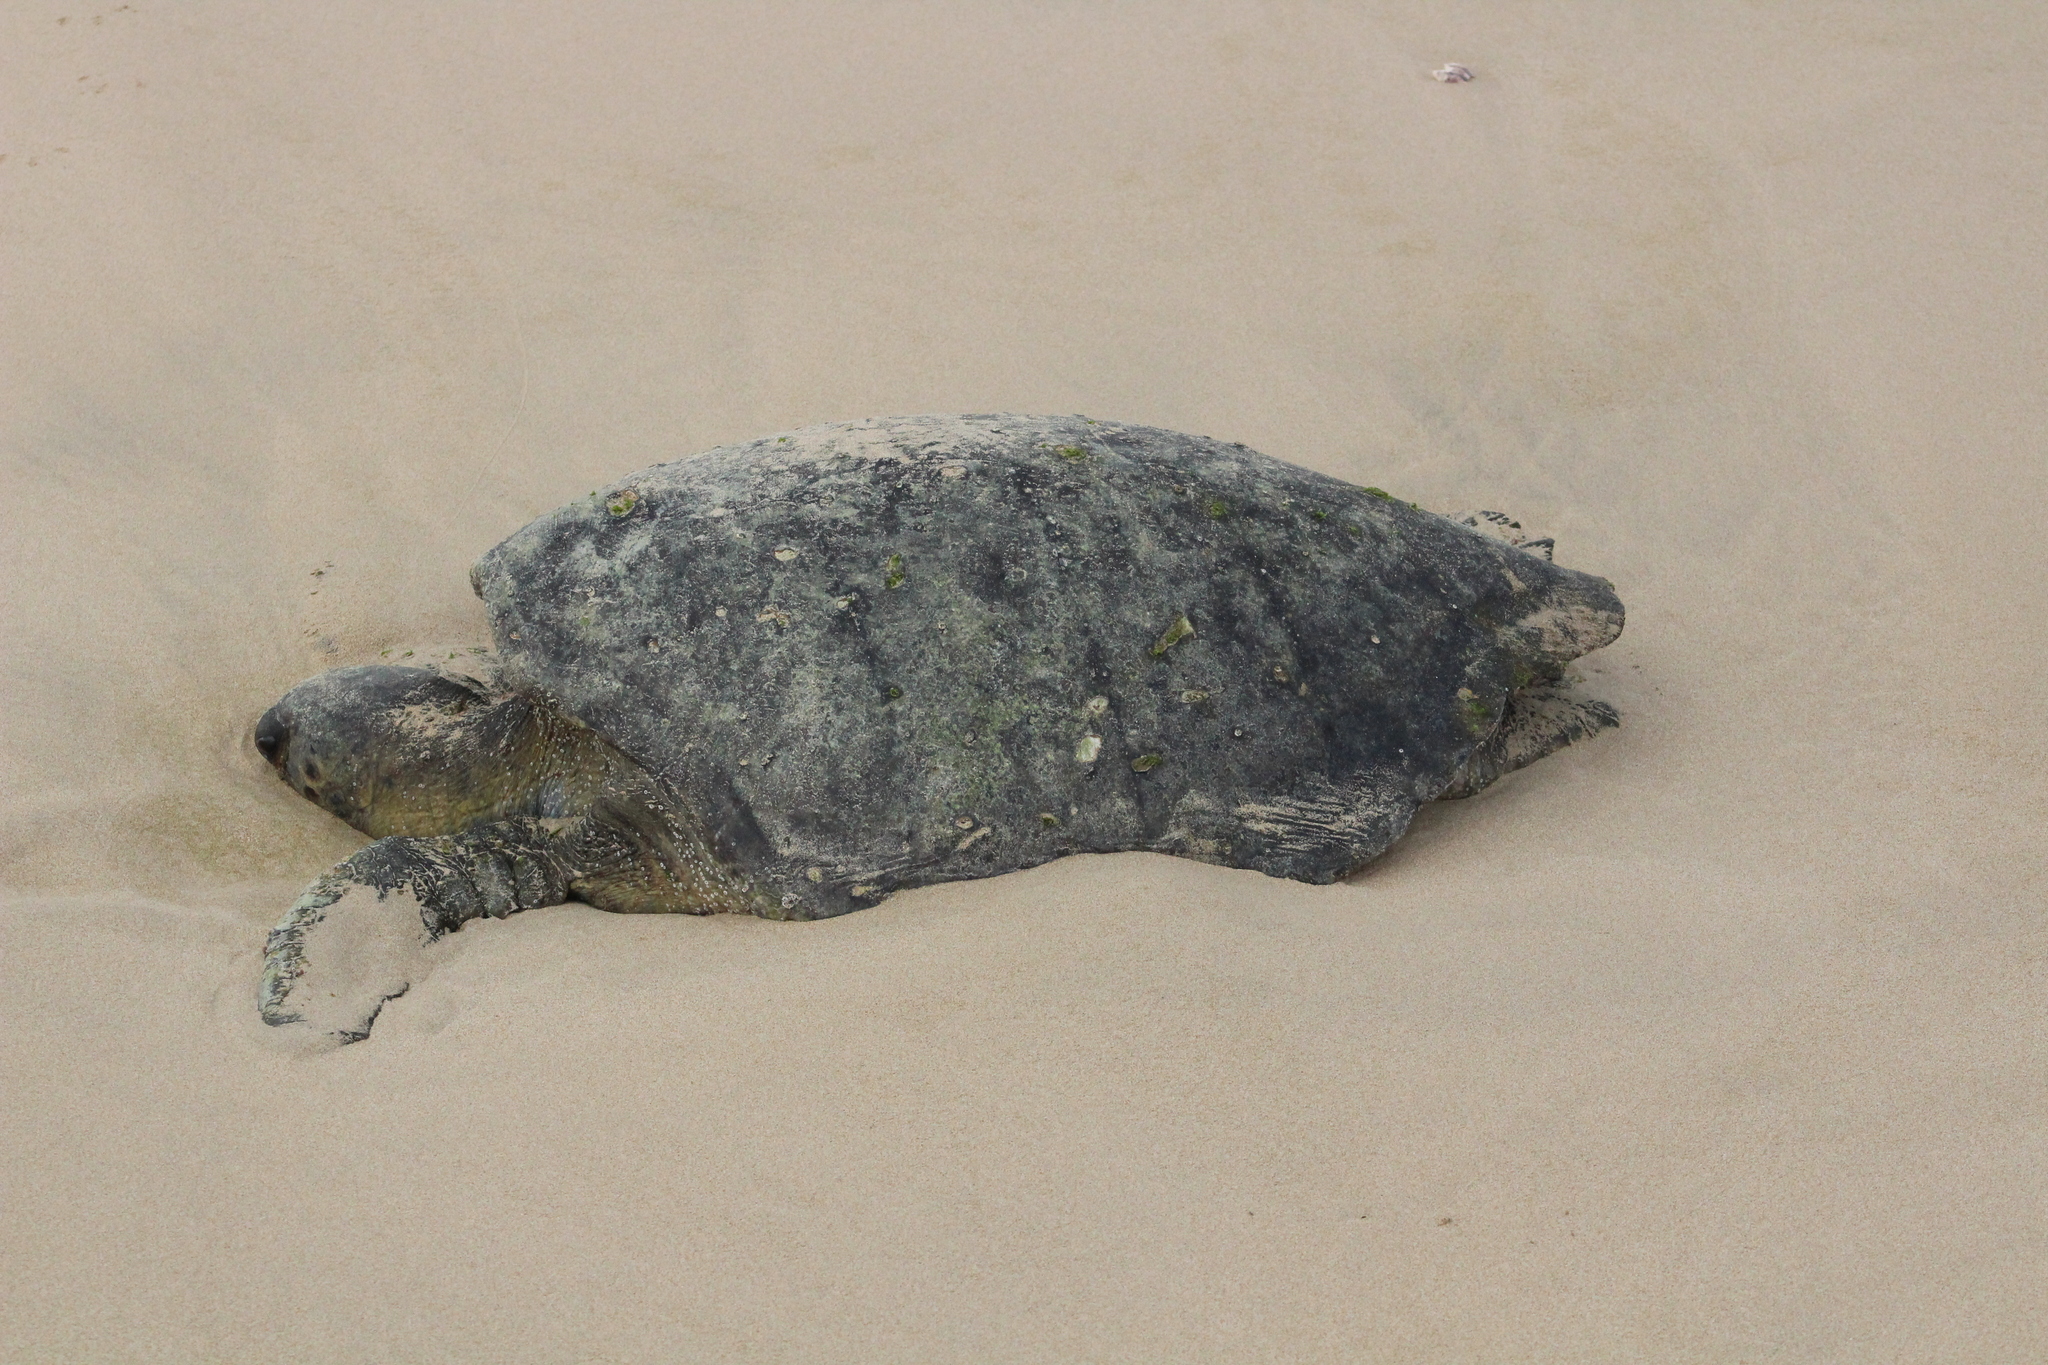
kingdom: Animalia
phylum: Chordata
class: Testudines
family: Cheloniidae
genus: Chelonia
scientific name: Chelonia mydas
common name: Green turtle
